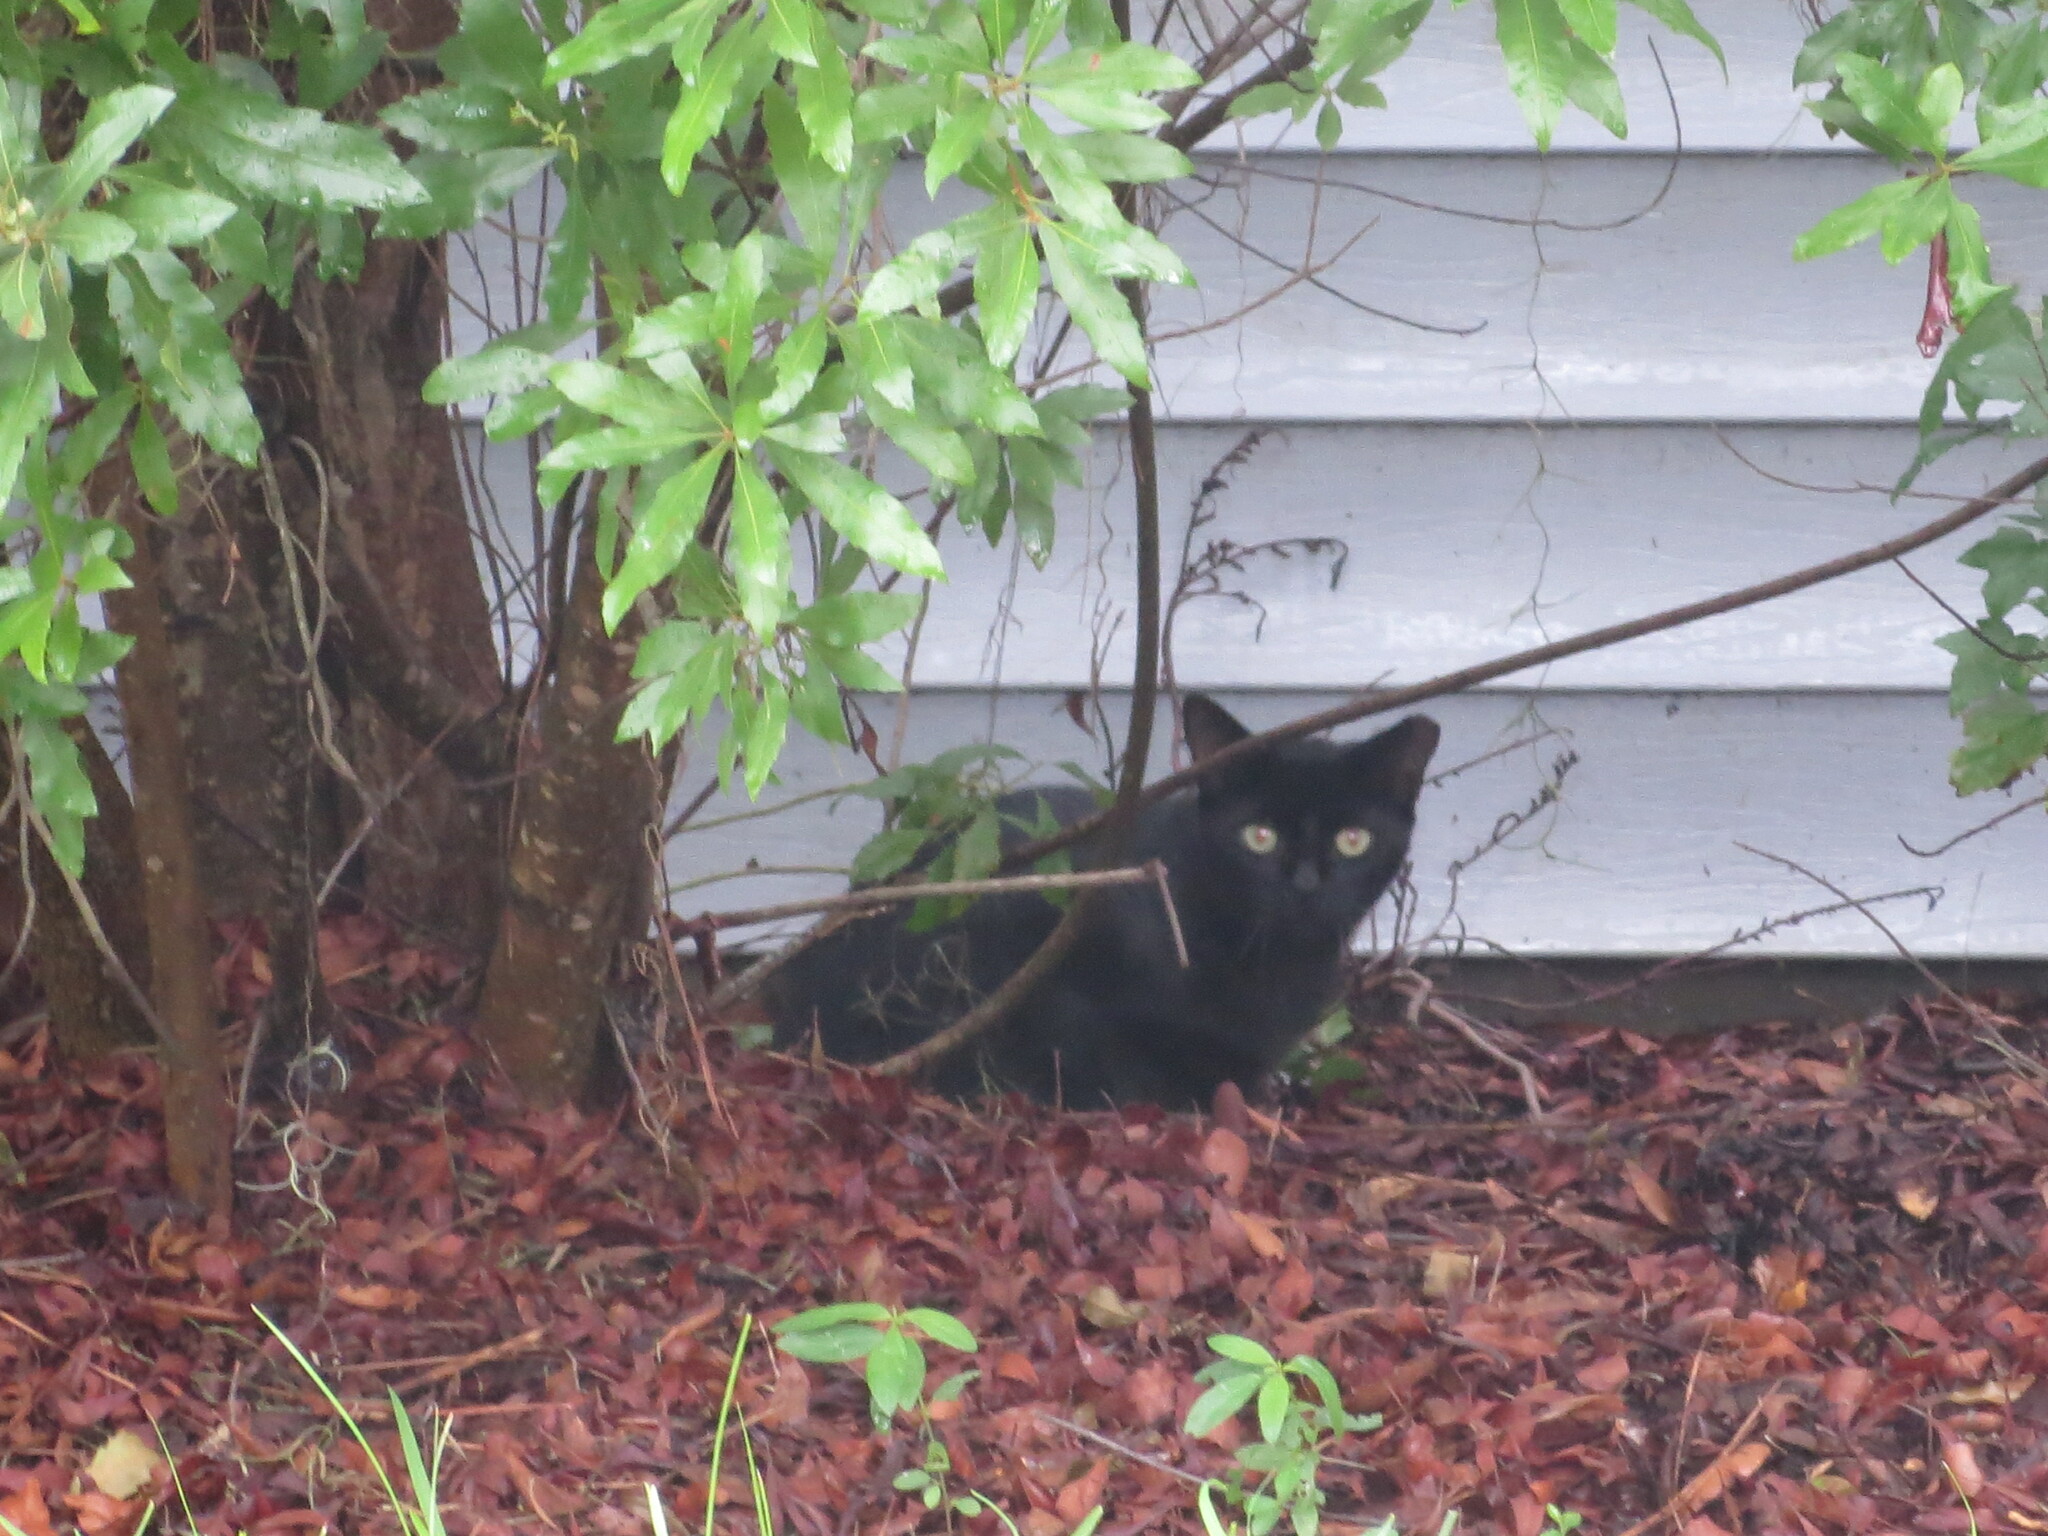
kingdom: Animalia
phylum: Chordata
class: Mammalia
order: Carnivora
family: Felidae
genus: Felis
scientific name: Felis catus
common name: Domestic cat
